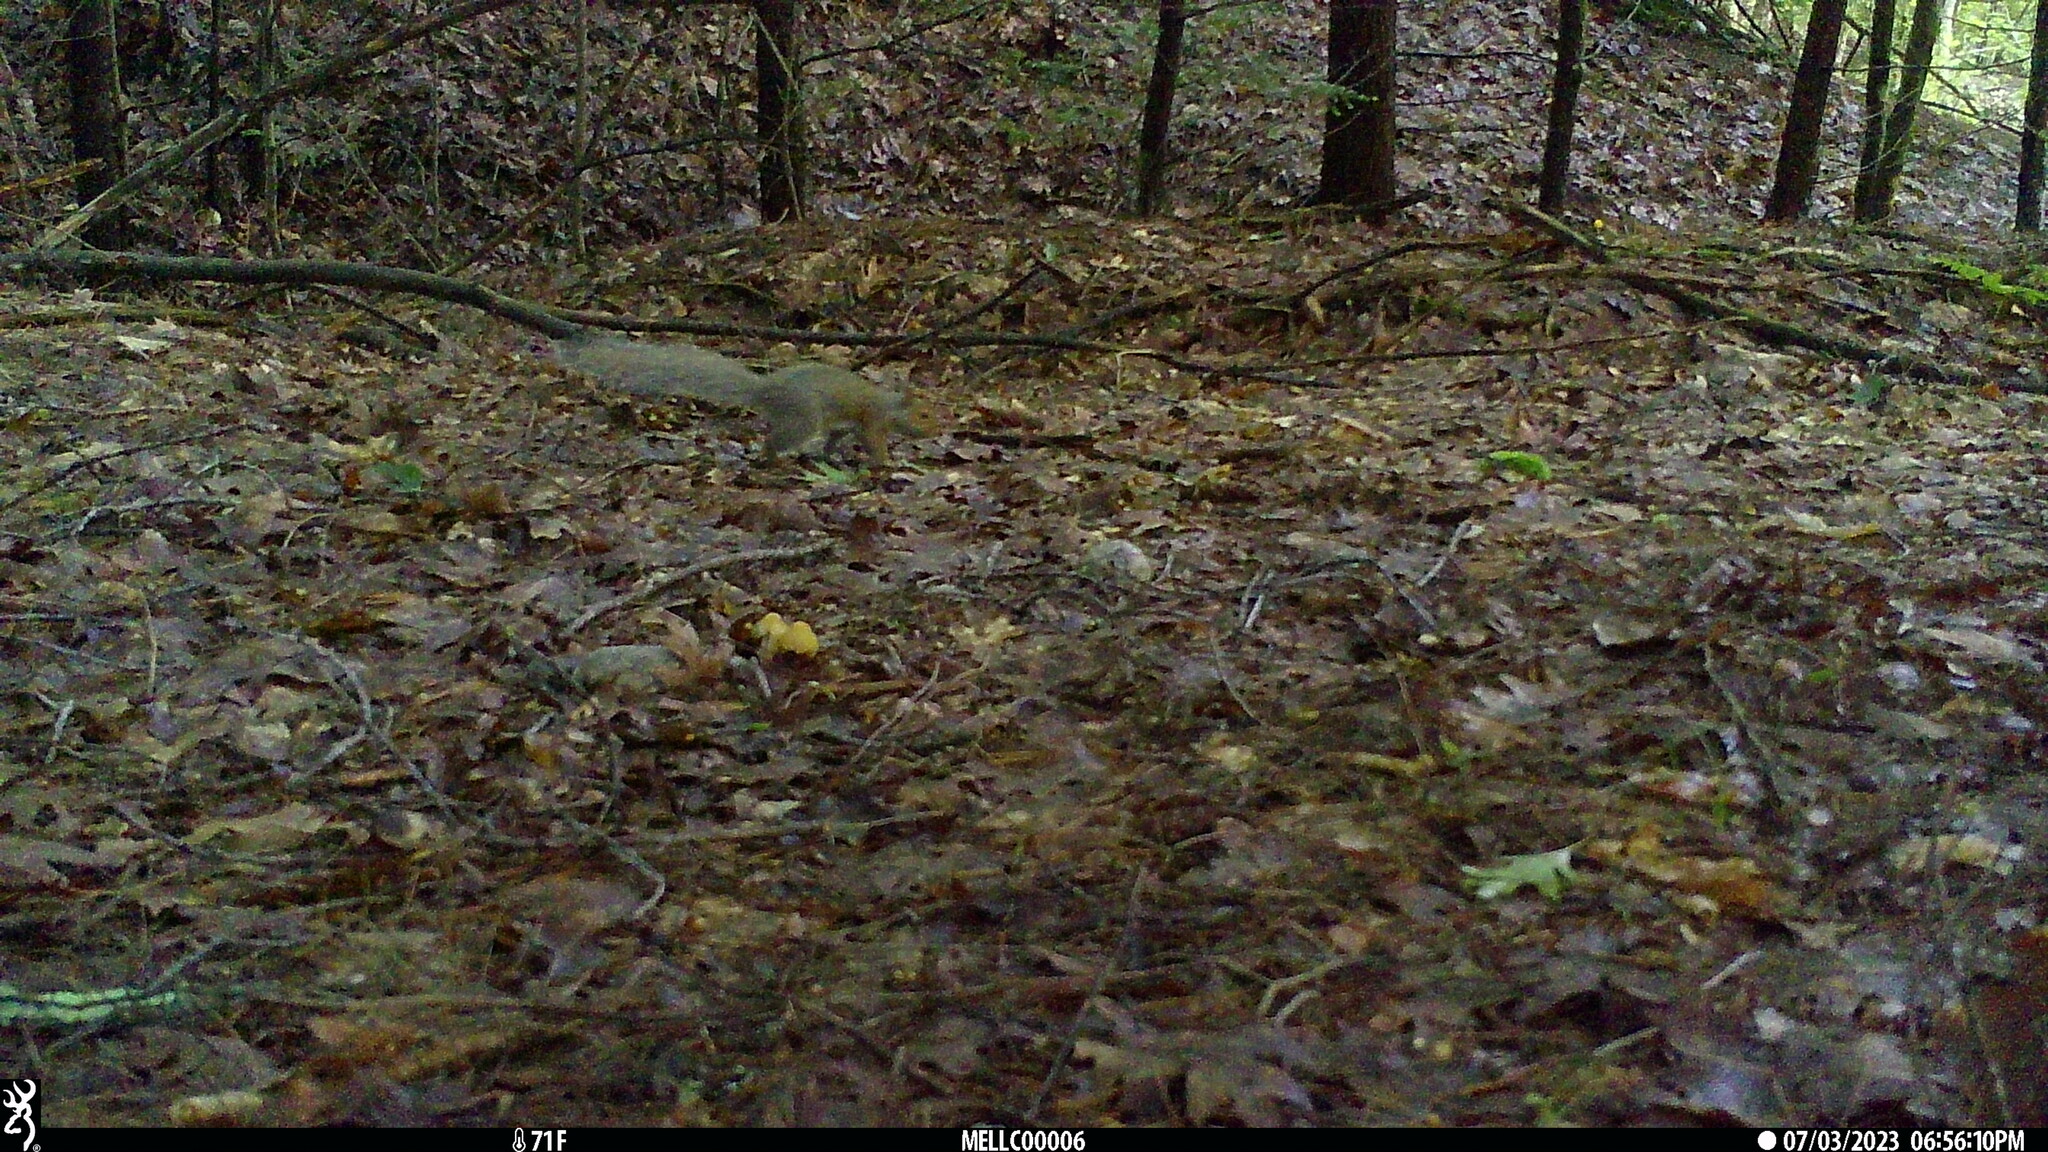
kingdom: Animalia
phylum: Chordata
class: Mammalia
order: Rodentia
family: Sciuridae
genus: Sciurus
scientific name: Sciurus carolinensis
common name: Eastern gray squirrel
